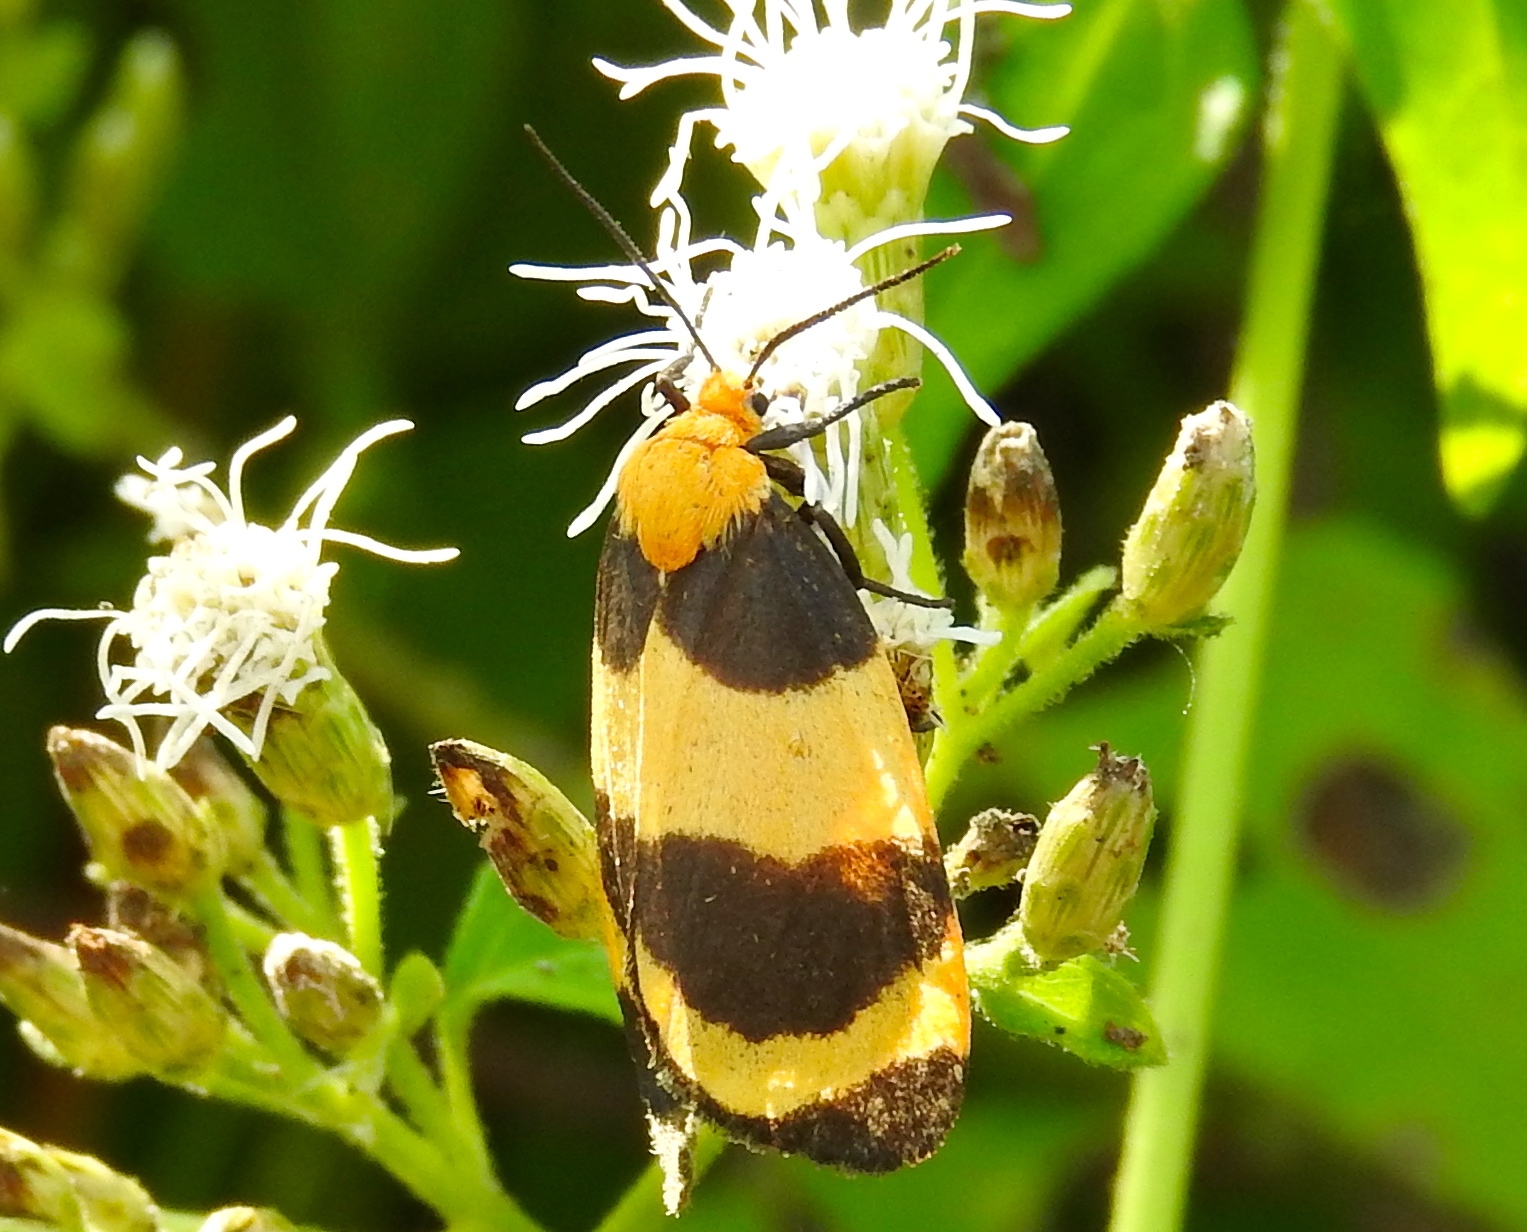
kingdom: Animalia
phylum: Arthropoda
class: Insecta
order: Lepidoptera
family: Erebidae
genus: Eudesmia
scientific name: Eudesmia
